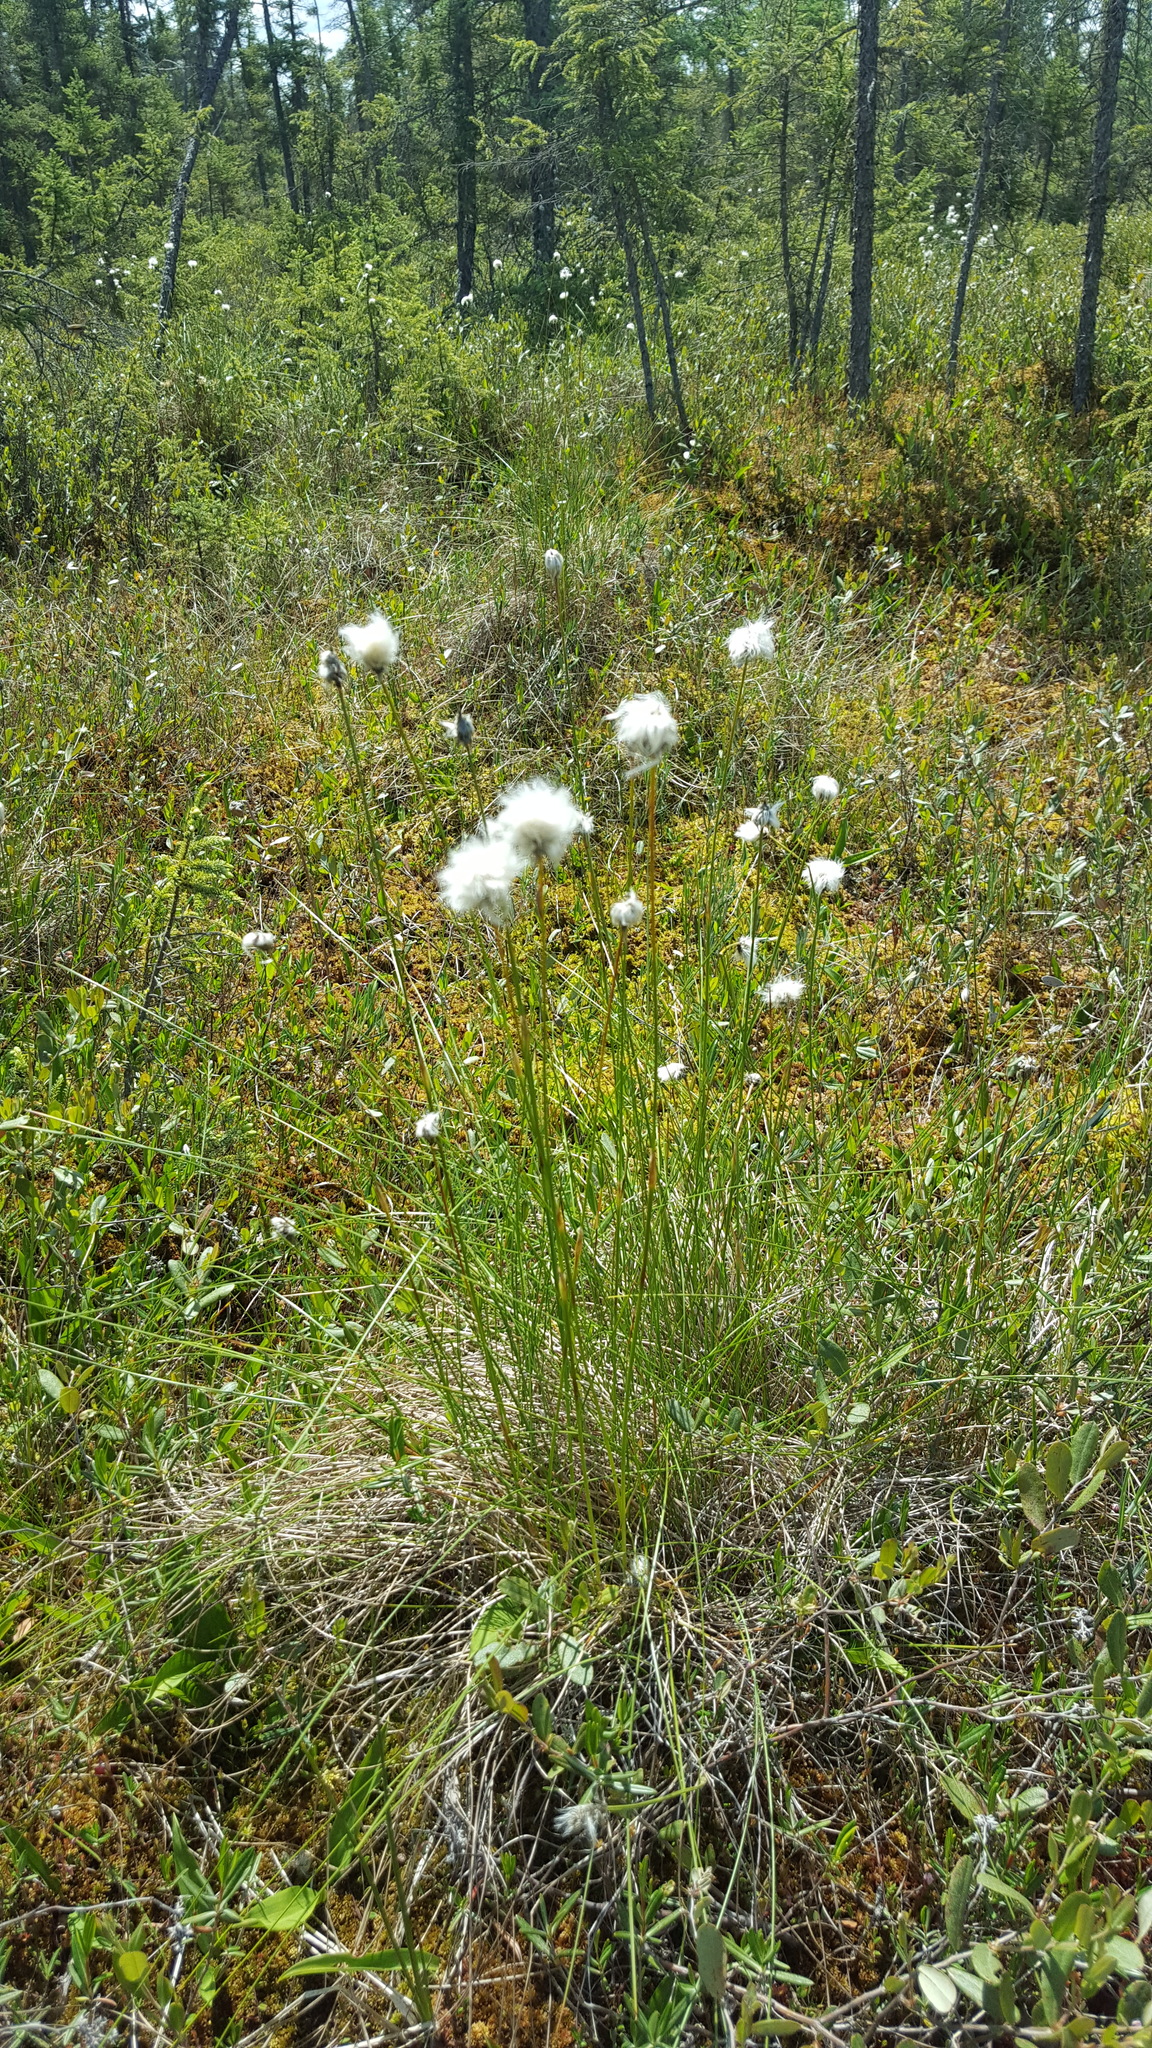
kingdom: Plantae
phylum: Tracheophyta
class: Liliopsida
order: Poales
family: Cyperaceae
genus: Eriophorum
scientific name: Eriophorum vaginatum
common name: Hare's-tail cottongrass
